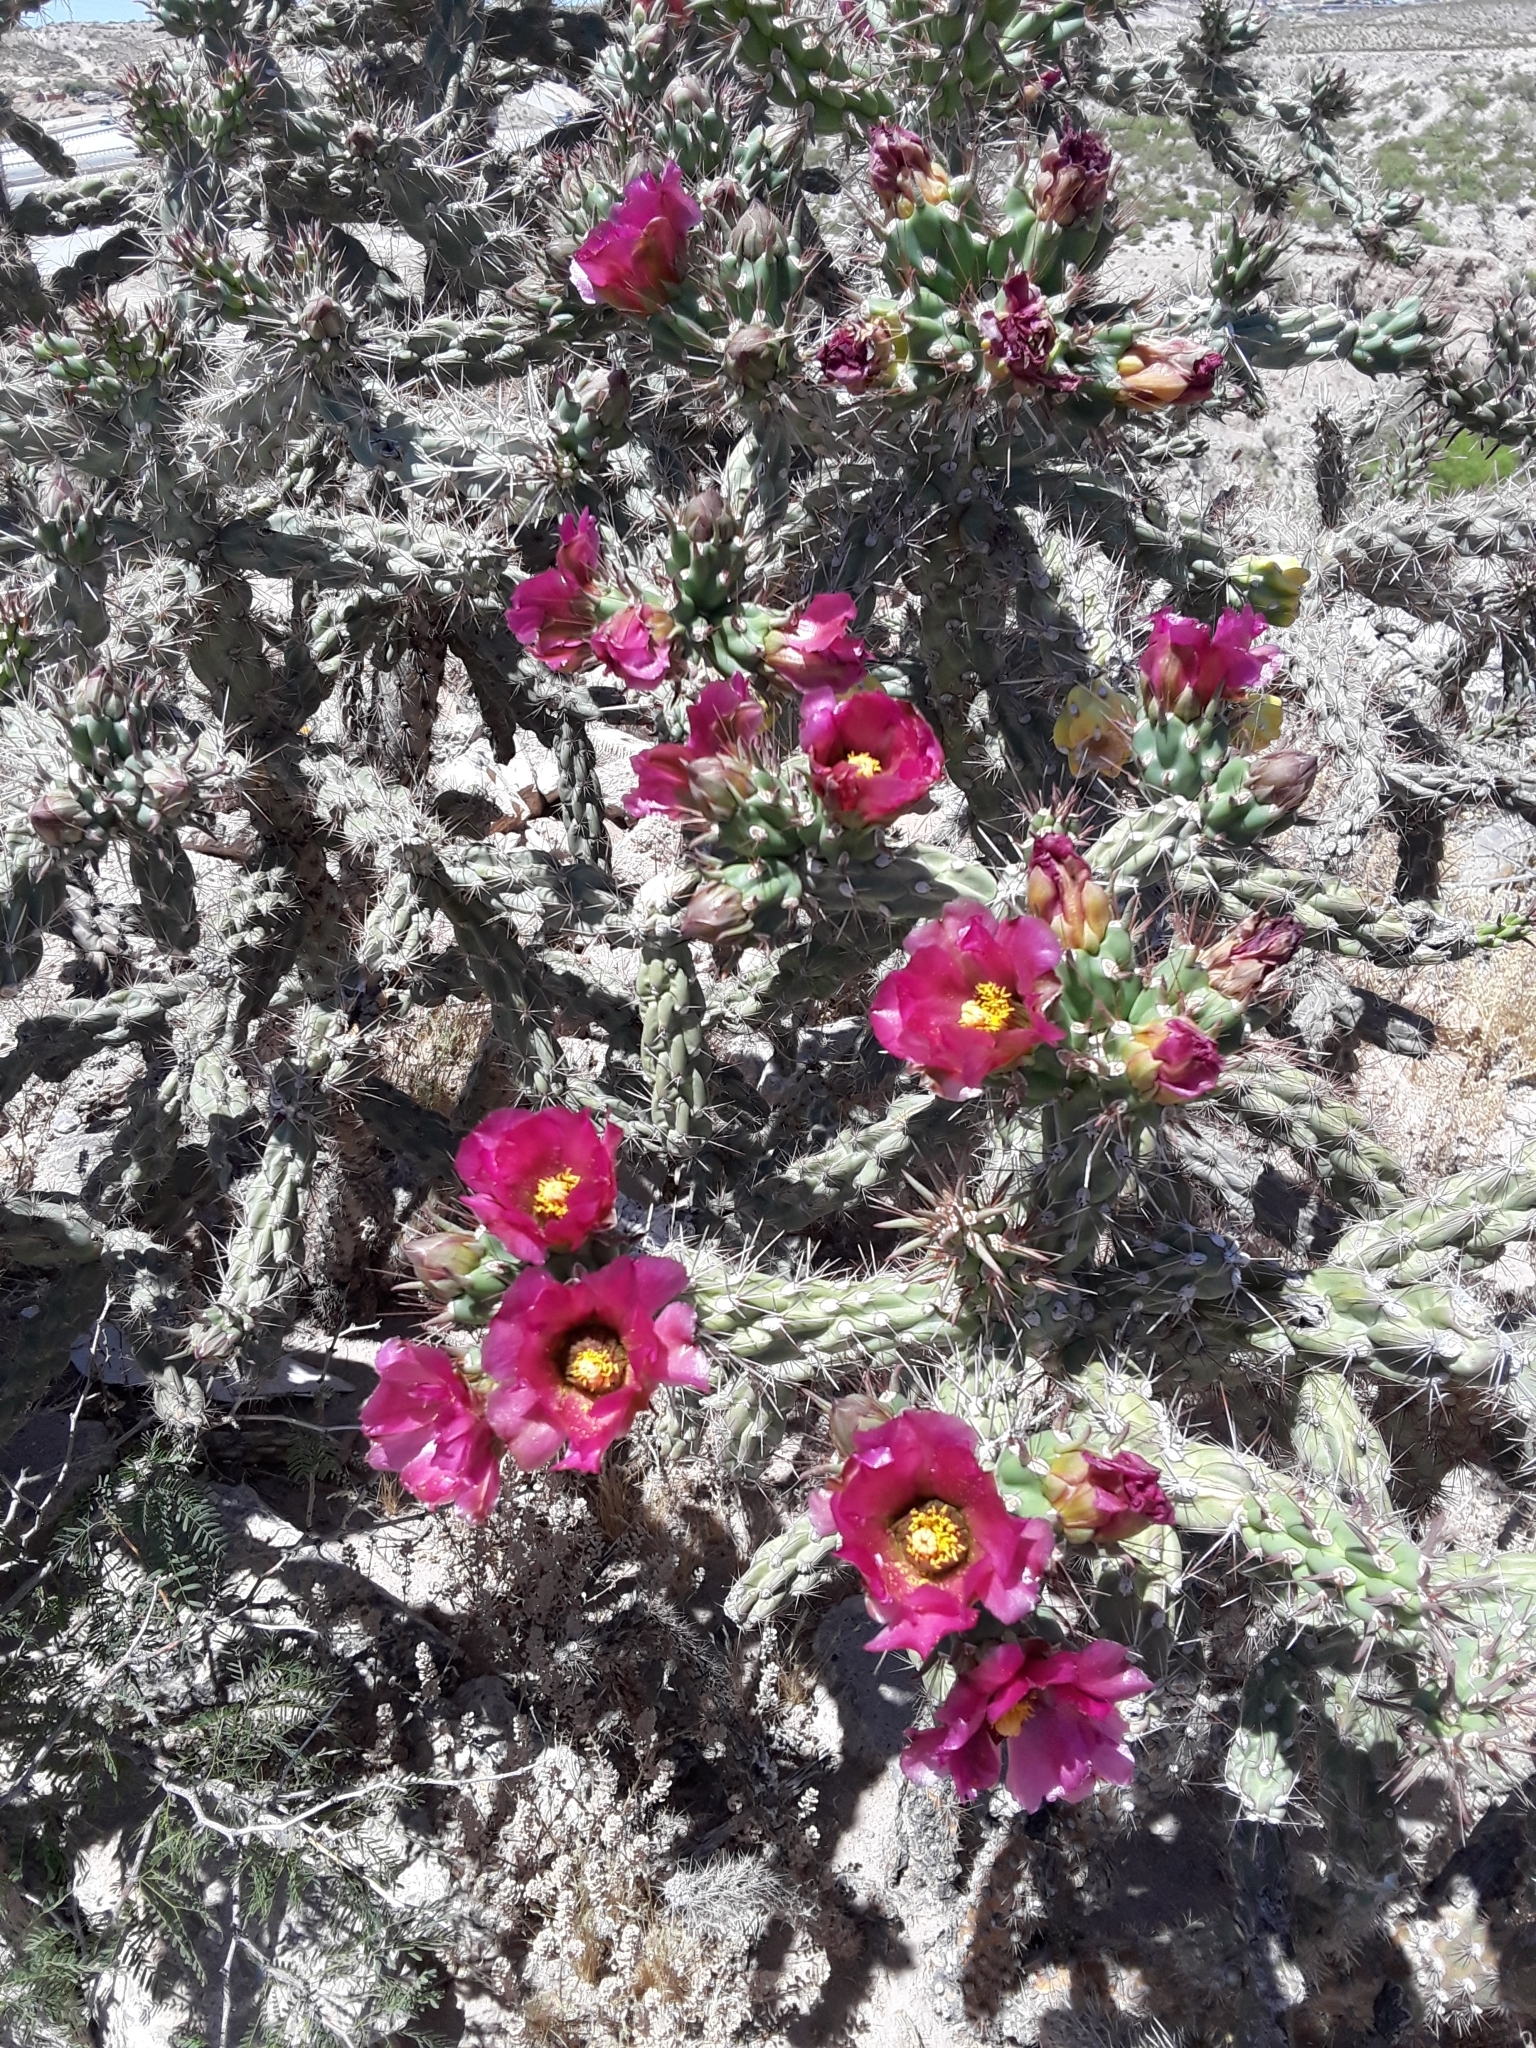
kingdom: Plantae
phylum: Tracheophyta
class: Magnoliopsida
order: Caryophyllales
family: Cactaceae
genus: Cylindropuntia
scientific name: Cylindropuntia imbricata
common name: Candelabrum cactus
